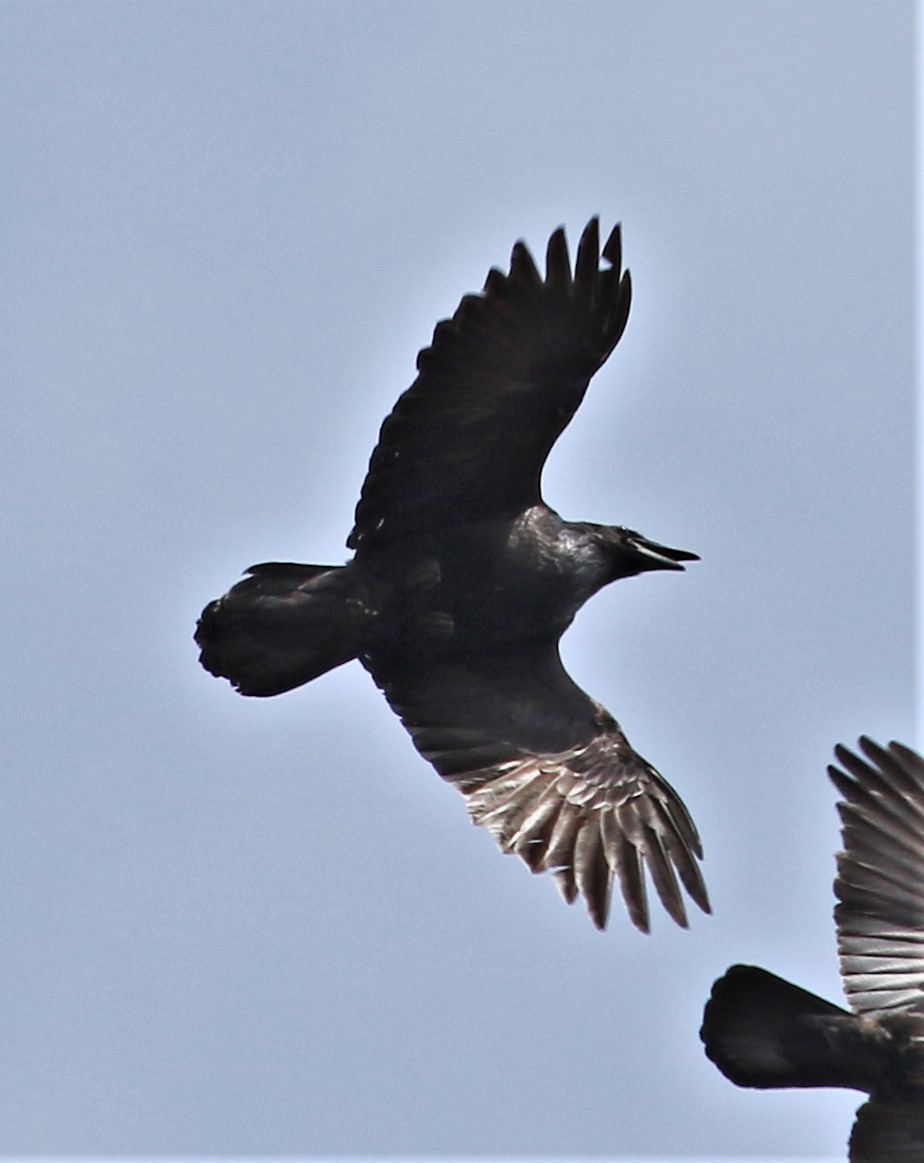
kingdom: Animalia
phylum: Chordata
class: Aves
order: Passeriformes
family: Corvidae
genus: Corvus
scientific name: Corvus corax
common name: Common raven
